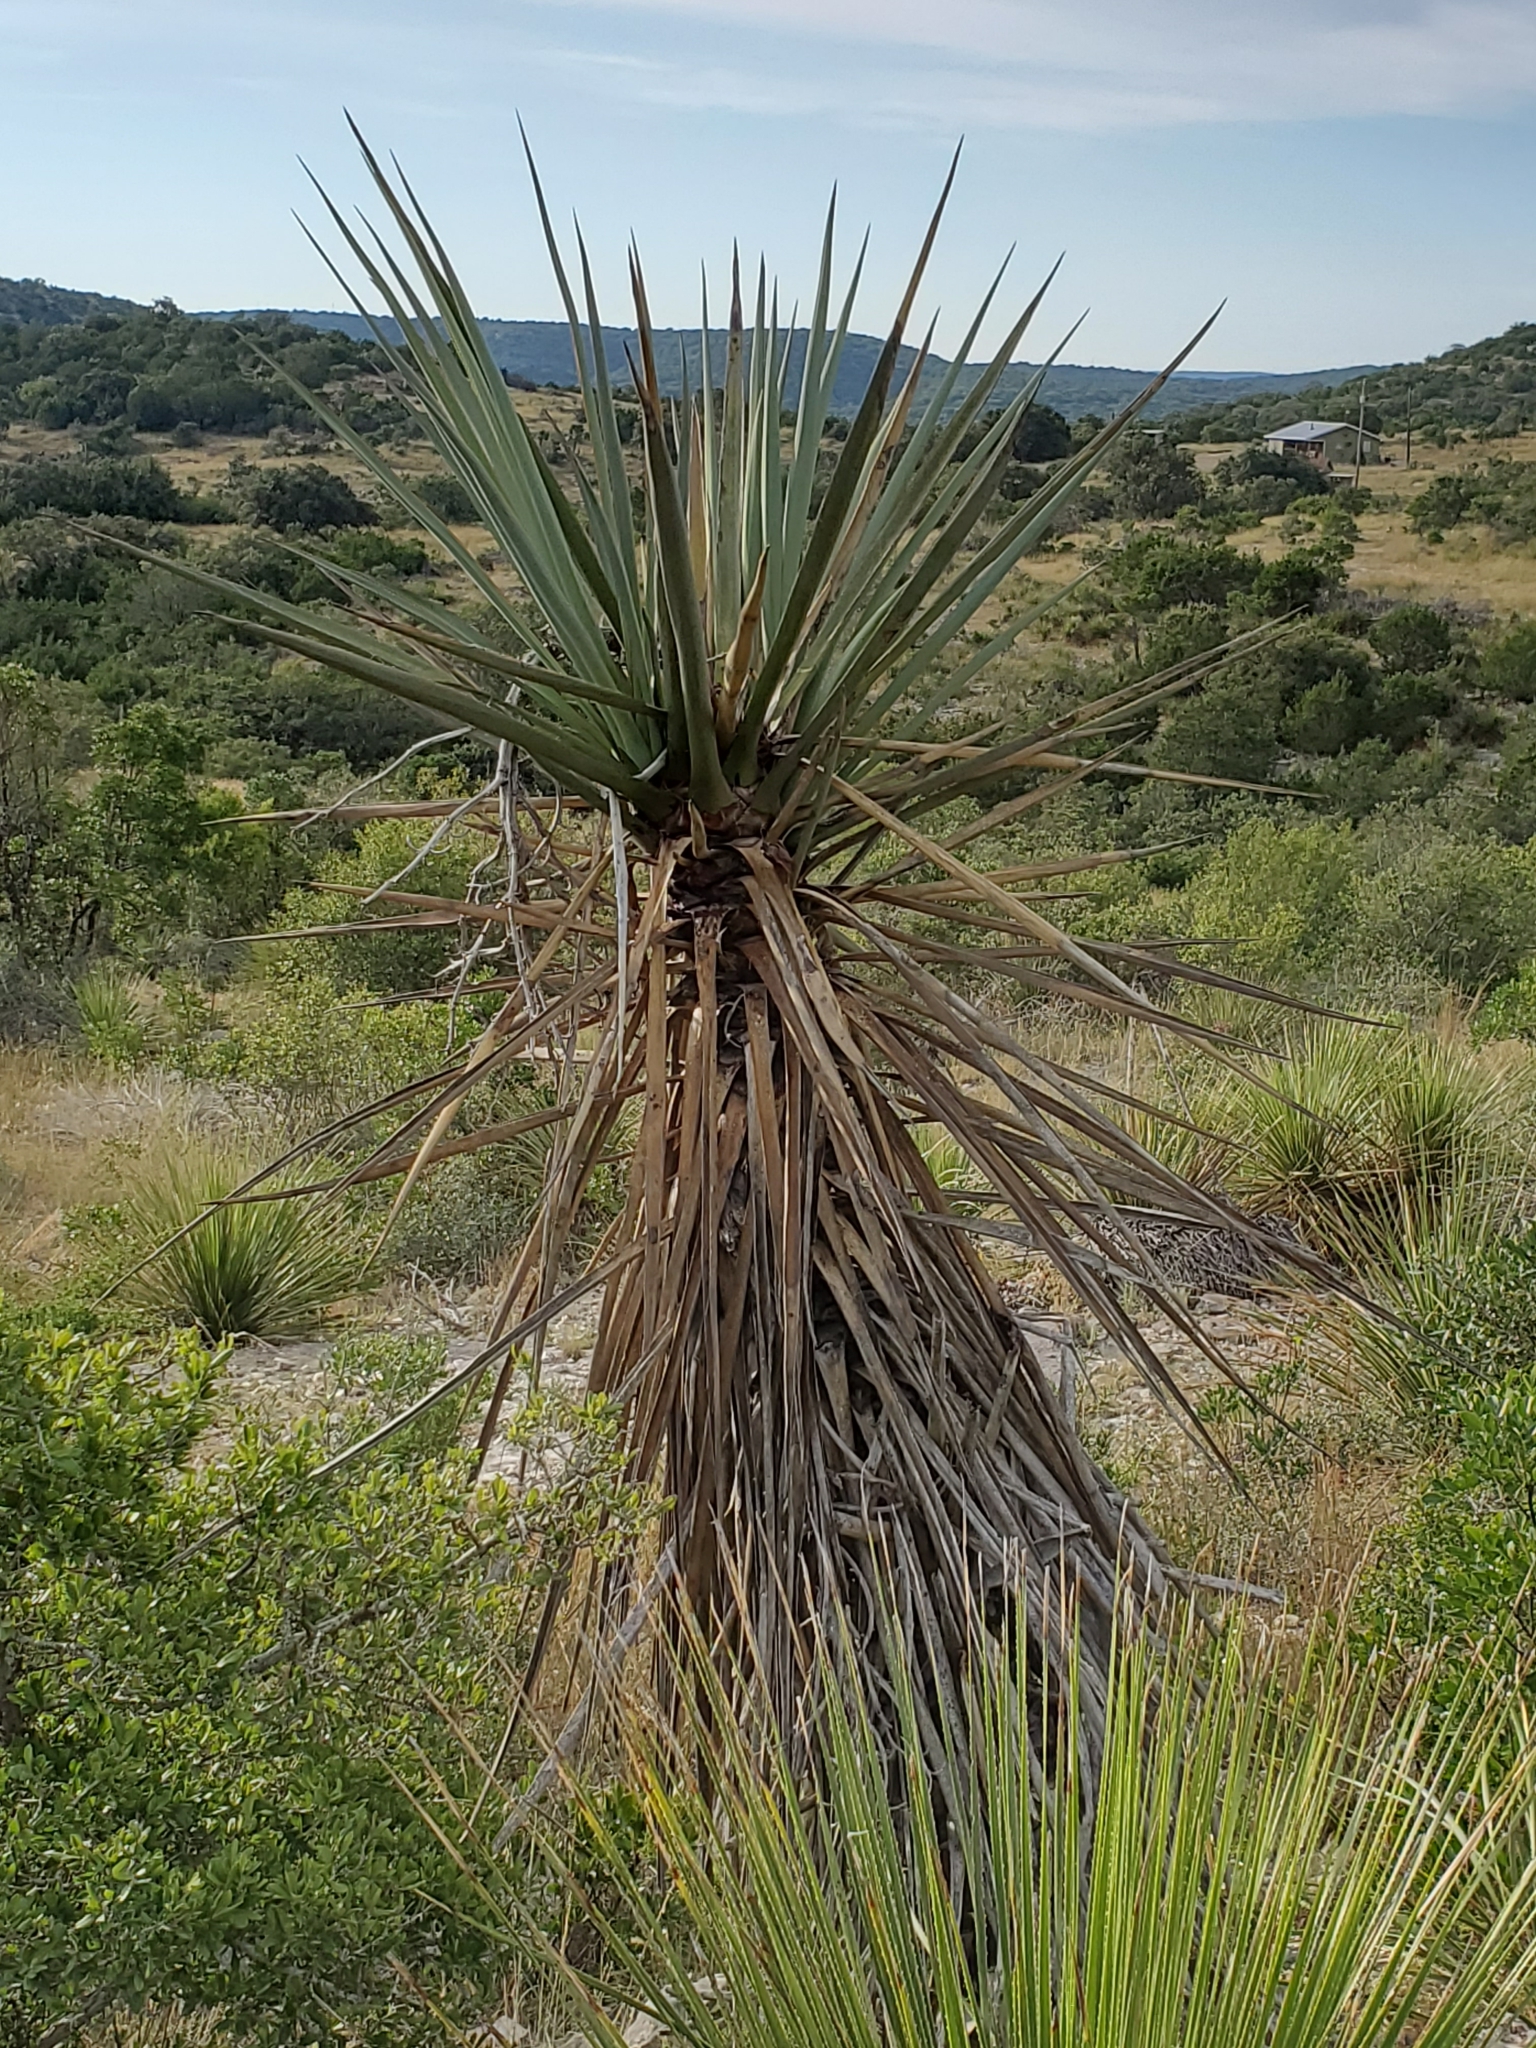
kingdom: Plantae
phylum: Tracheophyta
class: Liliopsida
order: Asparagales
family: Asparagaceae
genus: Yucca
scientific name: Yucca treculiana
